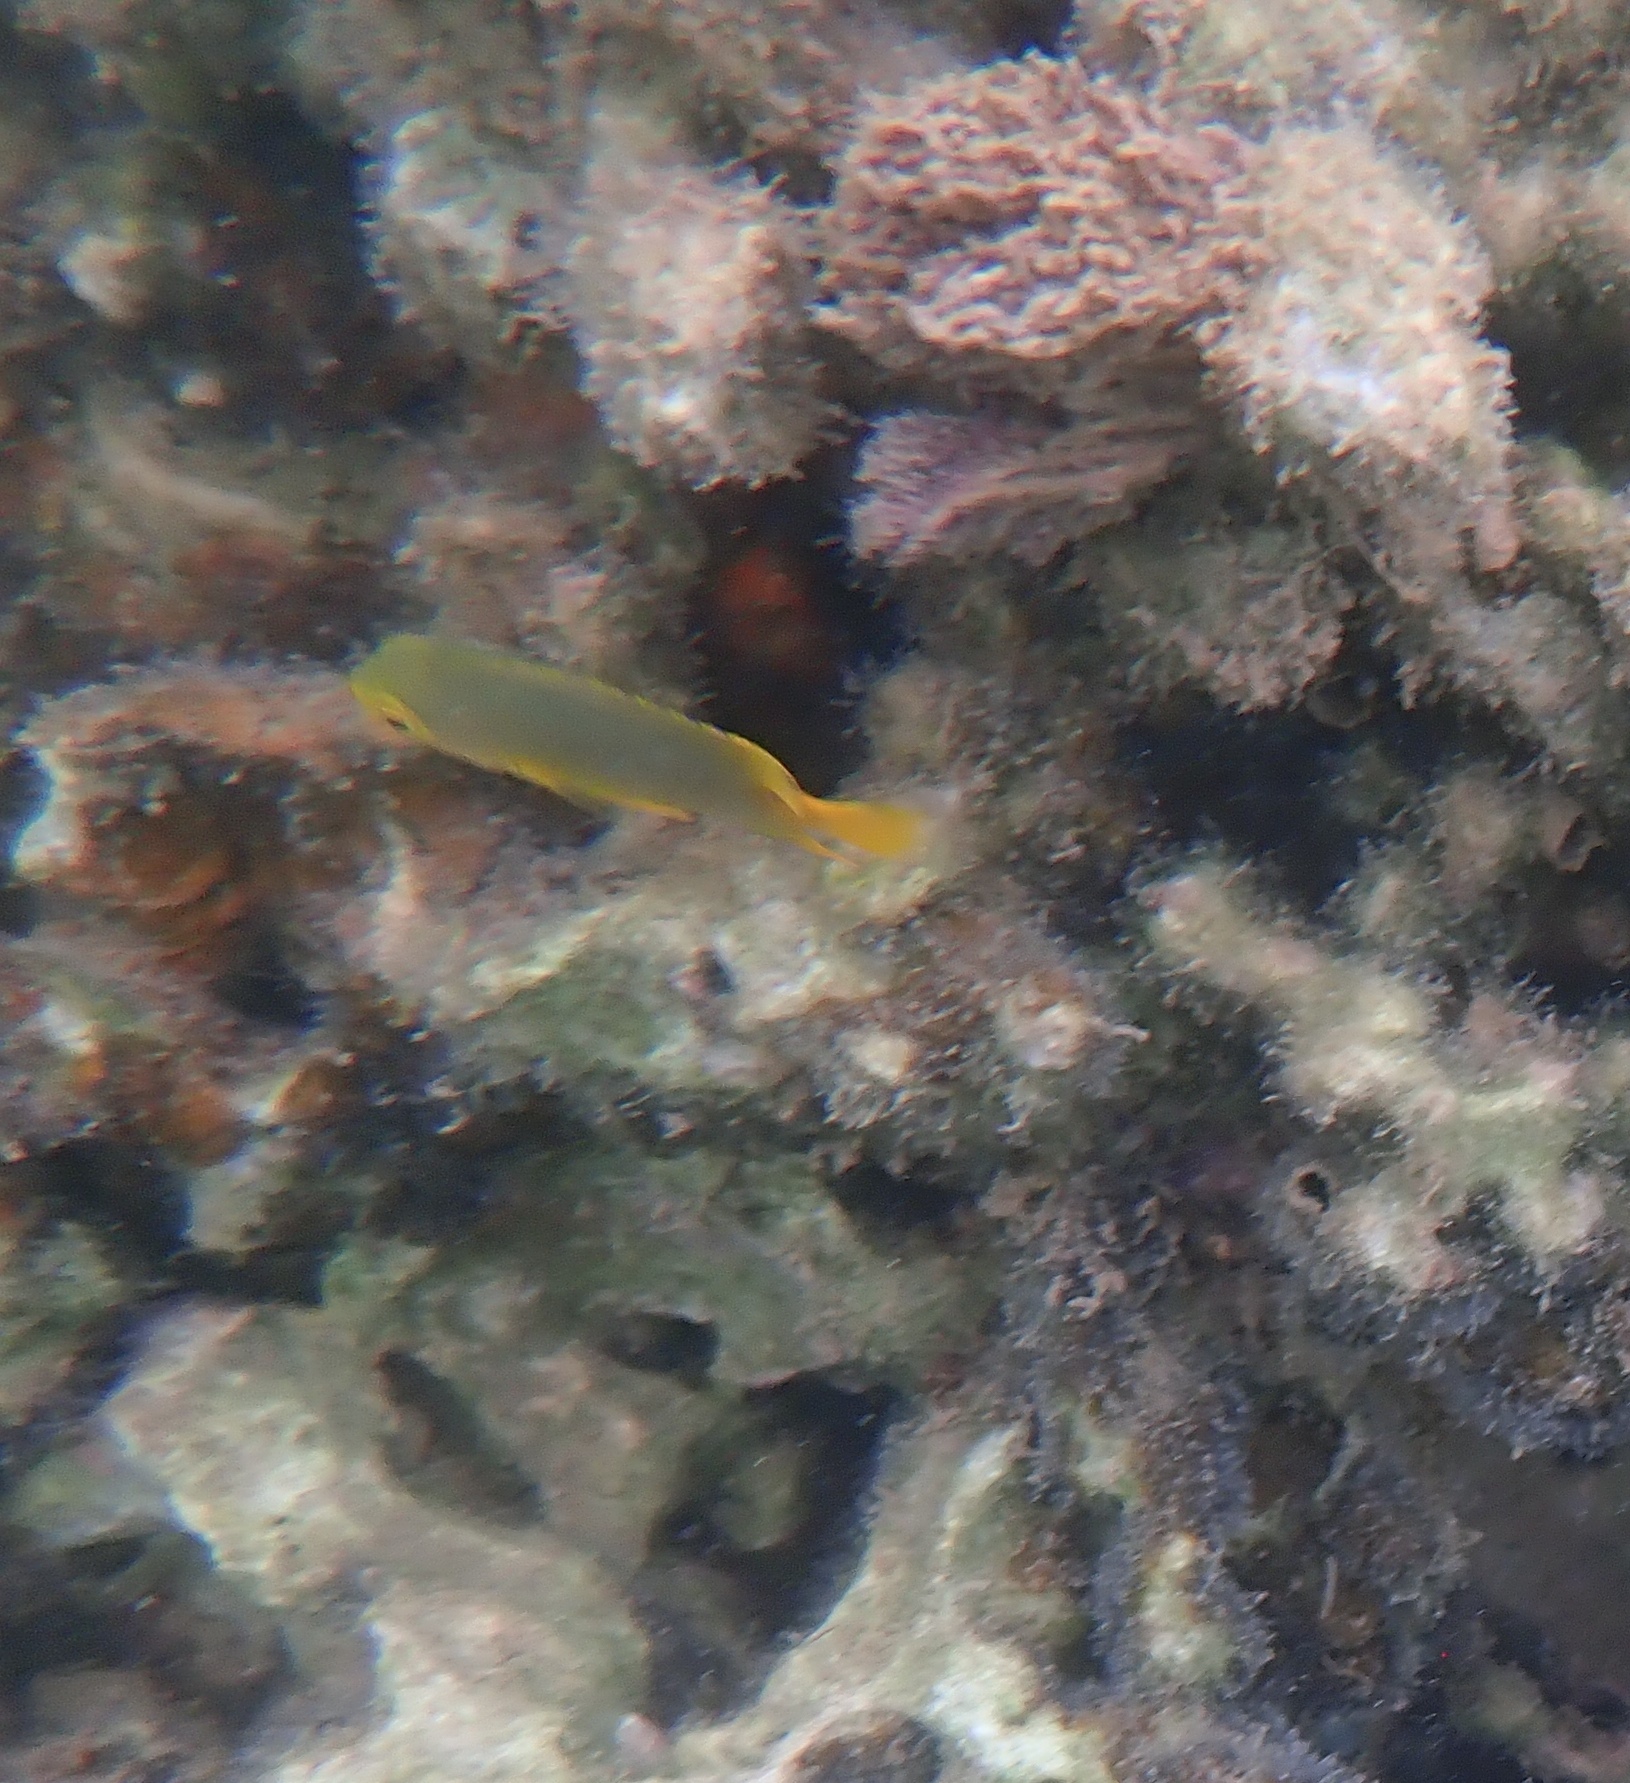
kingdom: Animalia
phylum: Chordata
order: Perciformes
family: Pomacentridae
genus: Pomacentrus
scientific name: Pomacentrus maafu
